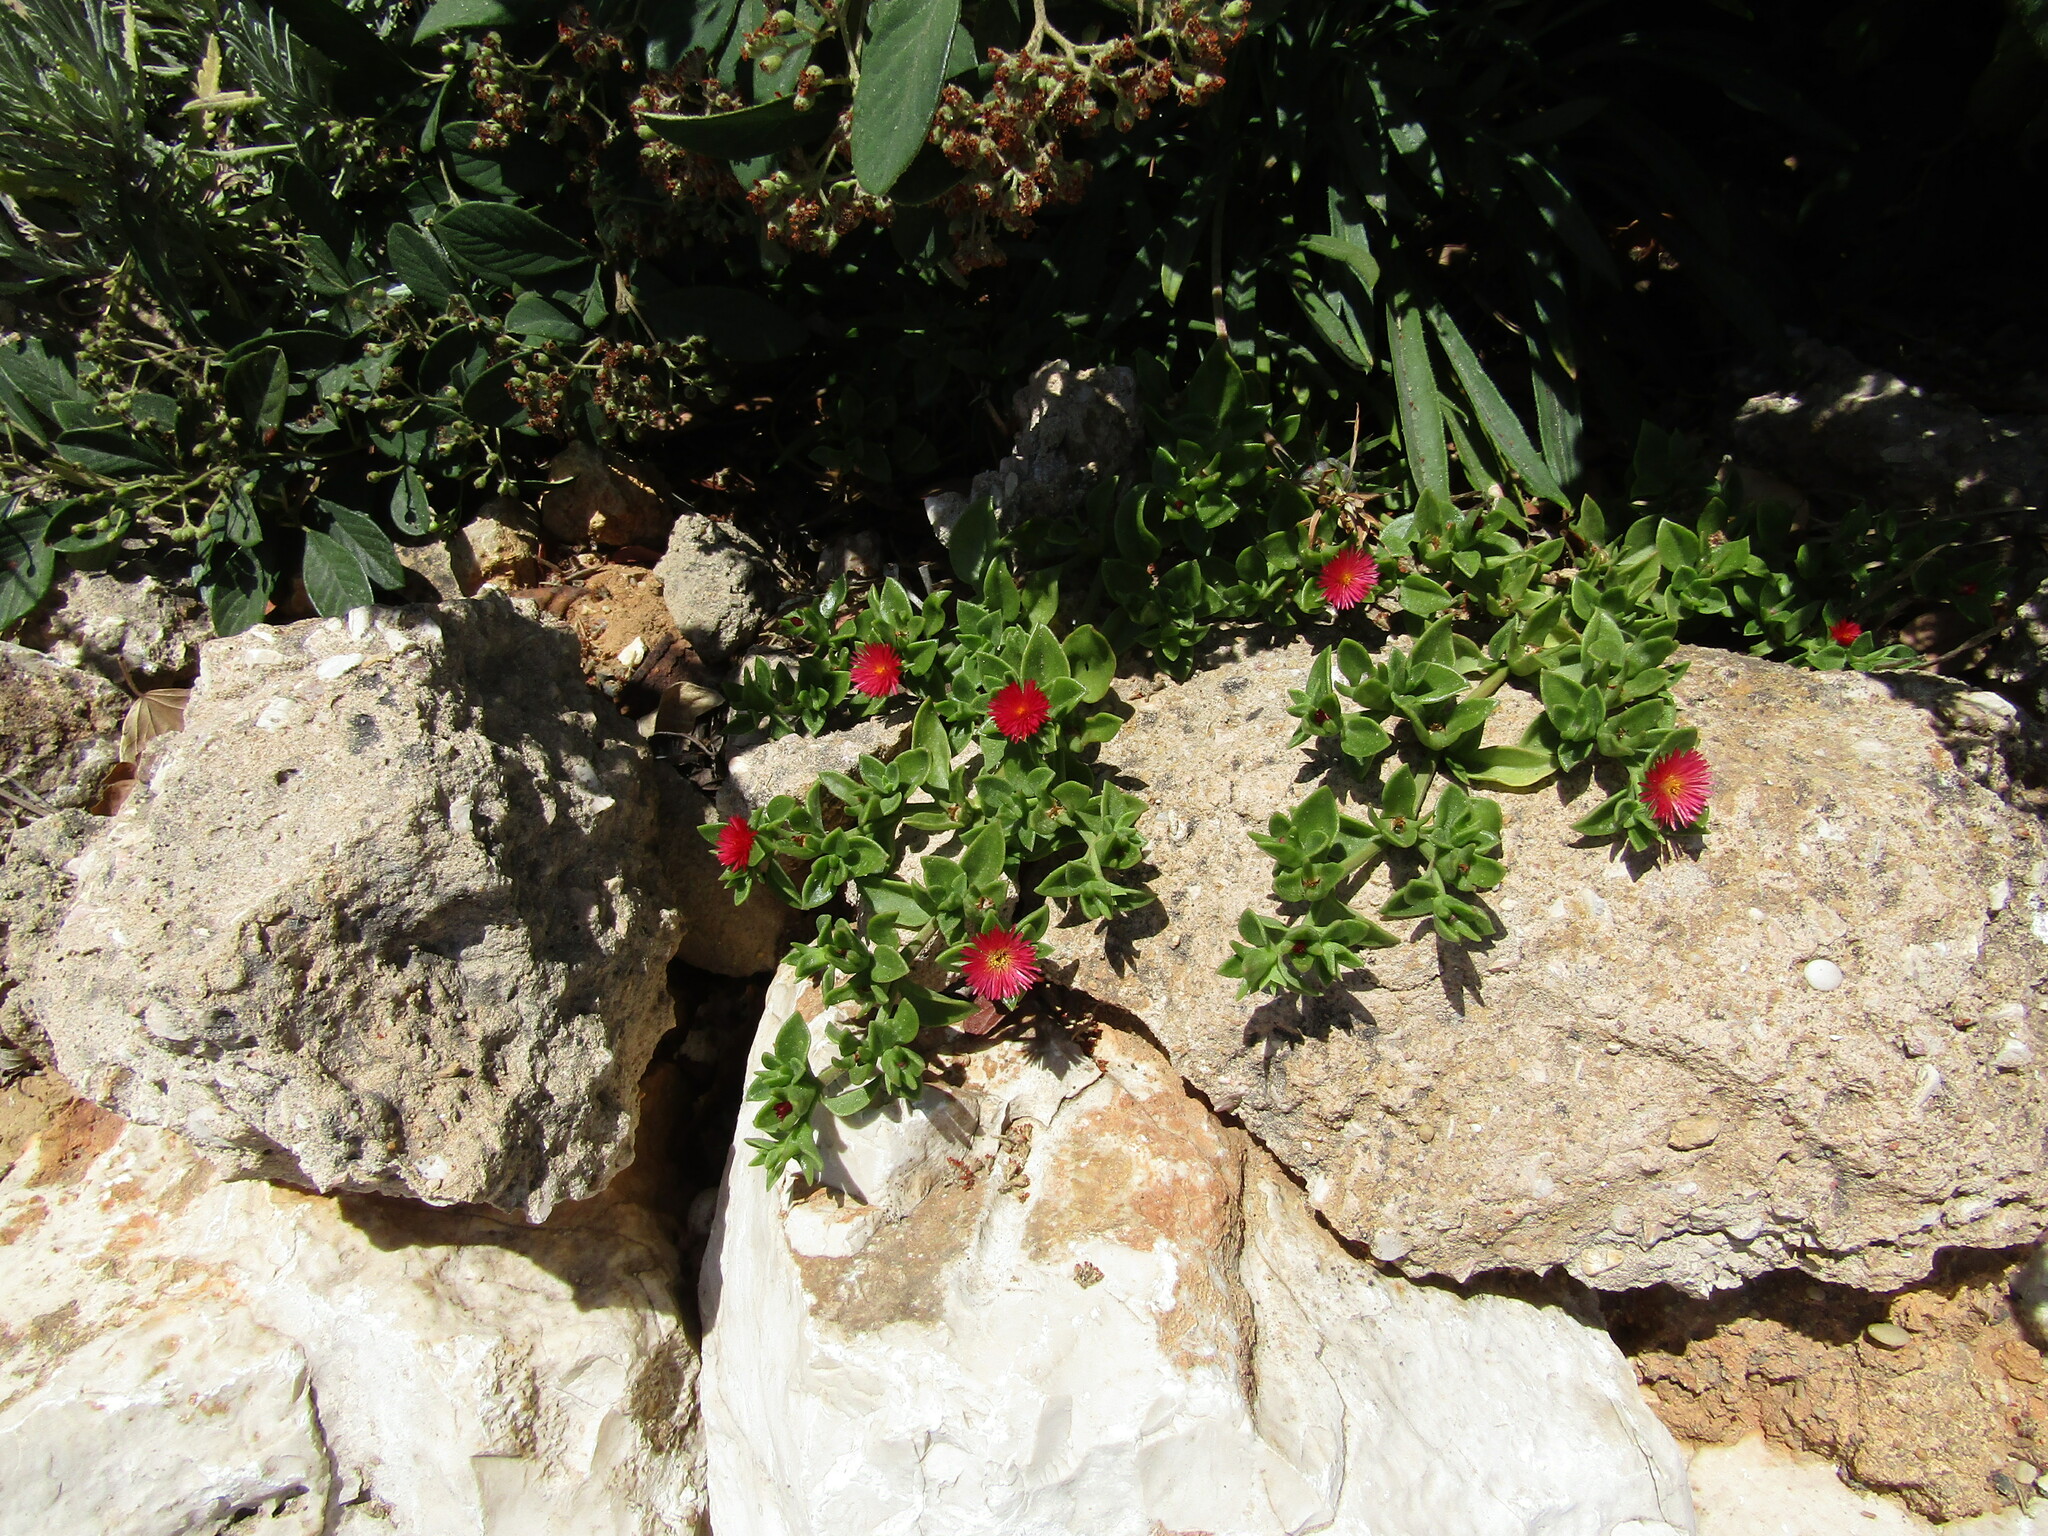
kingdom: Plantae
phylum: Tracheophyta
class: Magnoliopsida
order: Caryophyllales
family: Aizoaceae
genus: Mesembryanthemum
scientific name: Mesembryanthemum cordifolium
